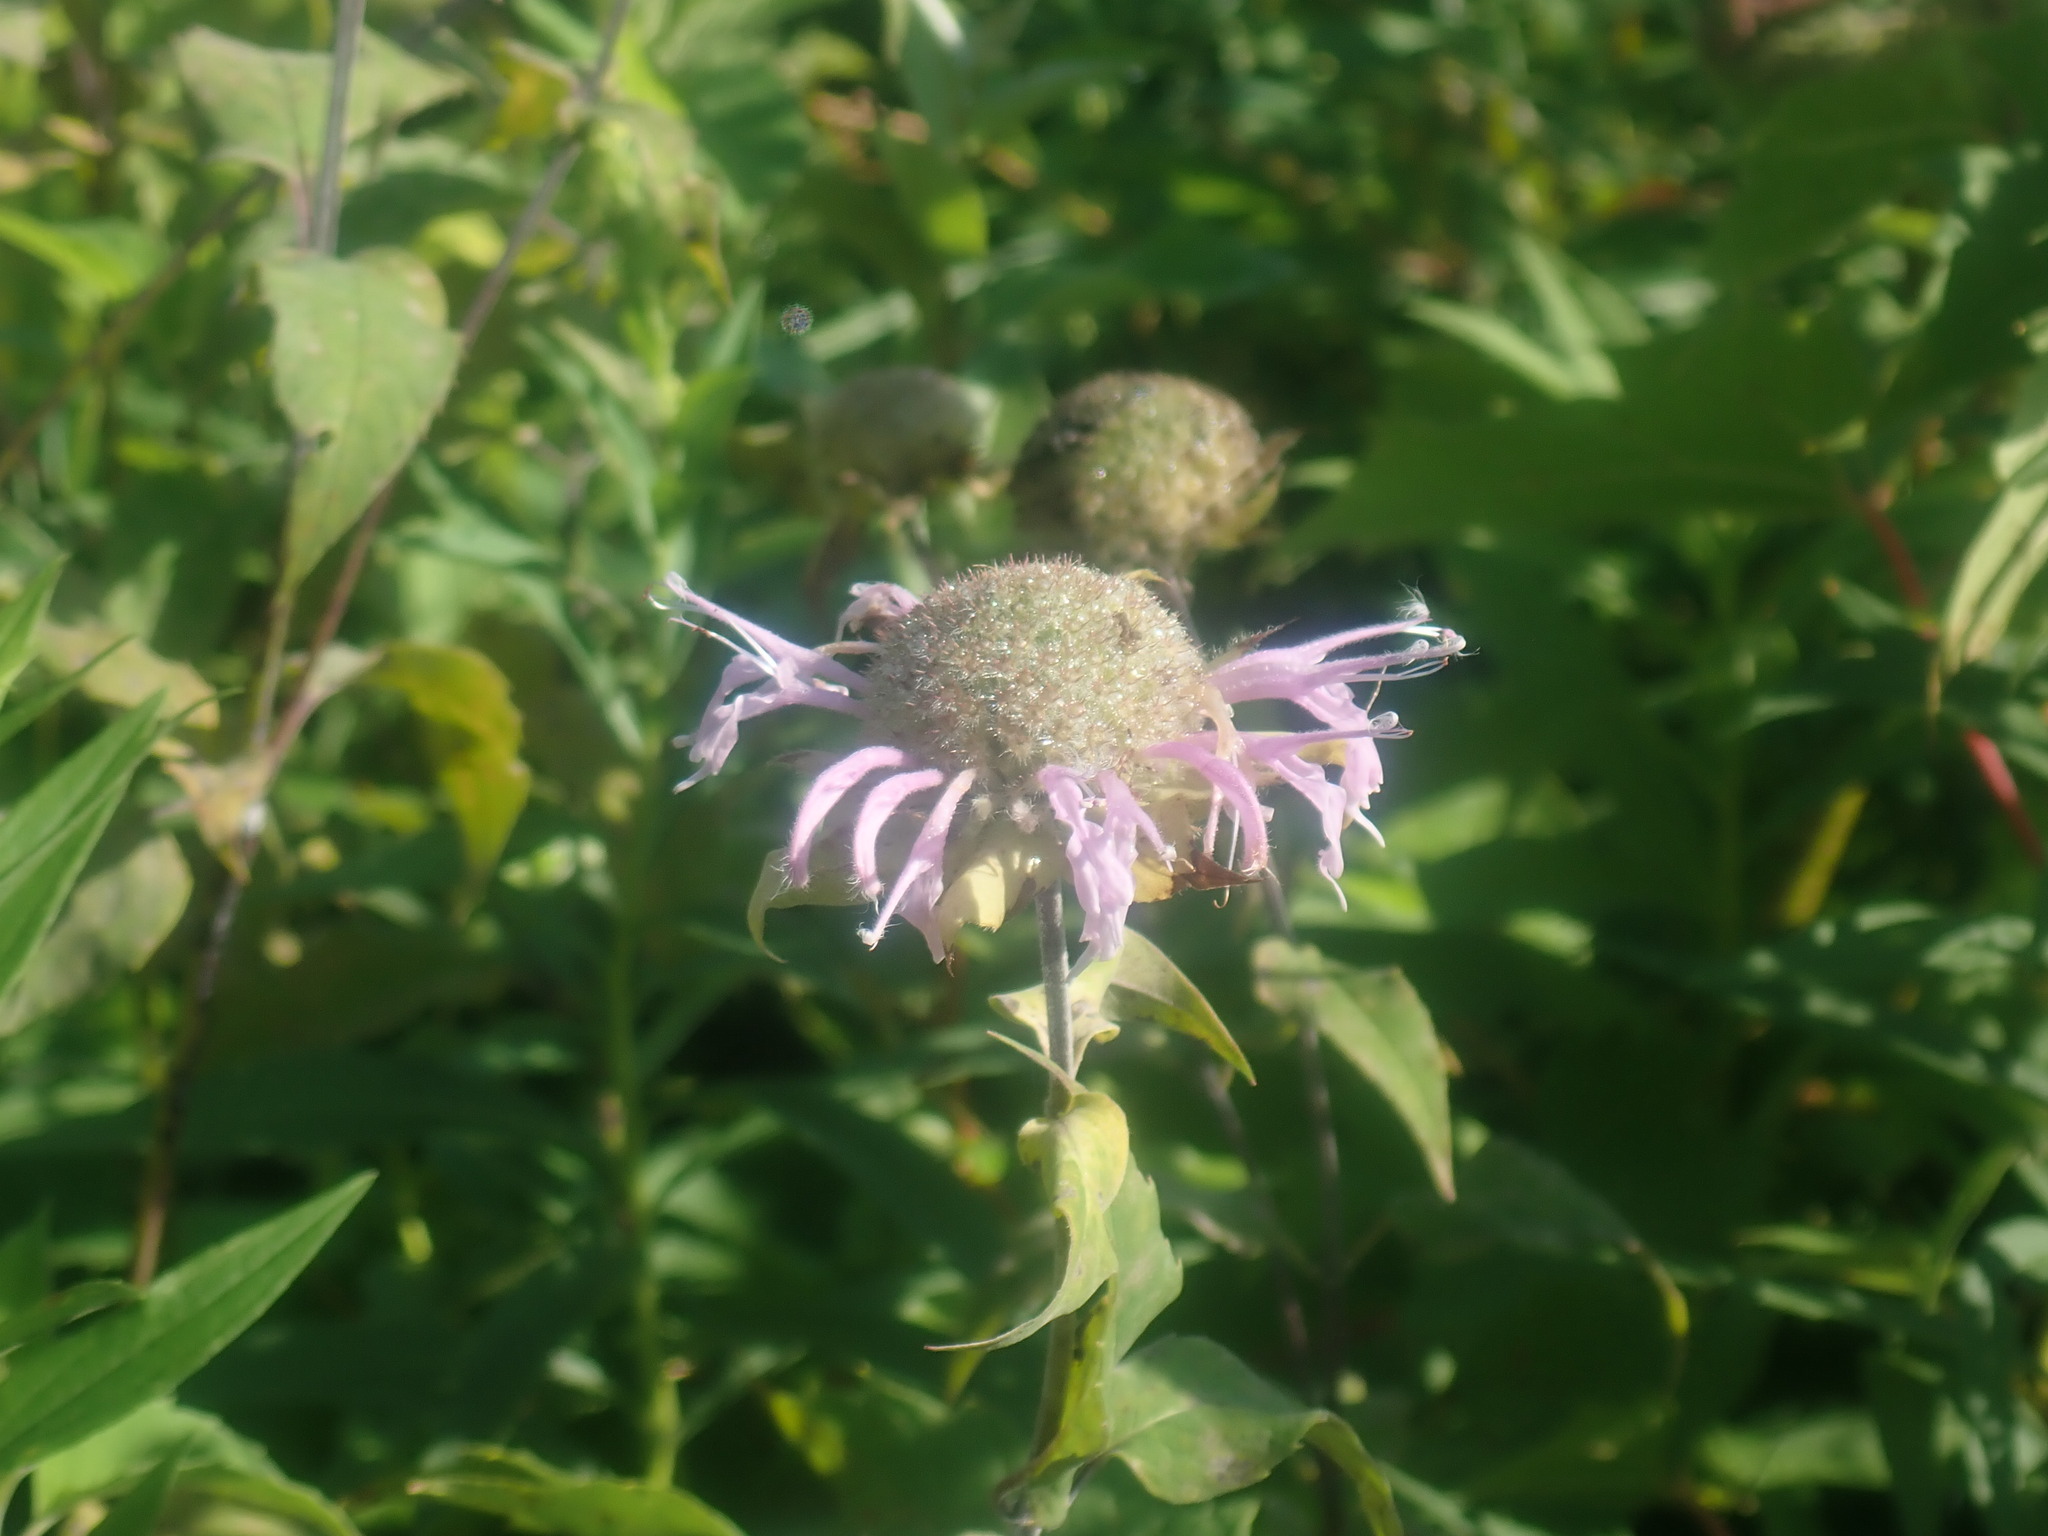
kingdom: Plantae
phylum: Tracheophyta
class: Magnoliopsida
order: Lamiales
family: Lamiaceae
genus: Monarda
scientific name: Monarda fistulosa
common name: Purple beebalm
